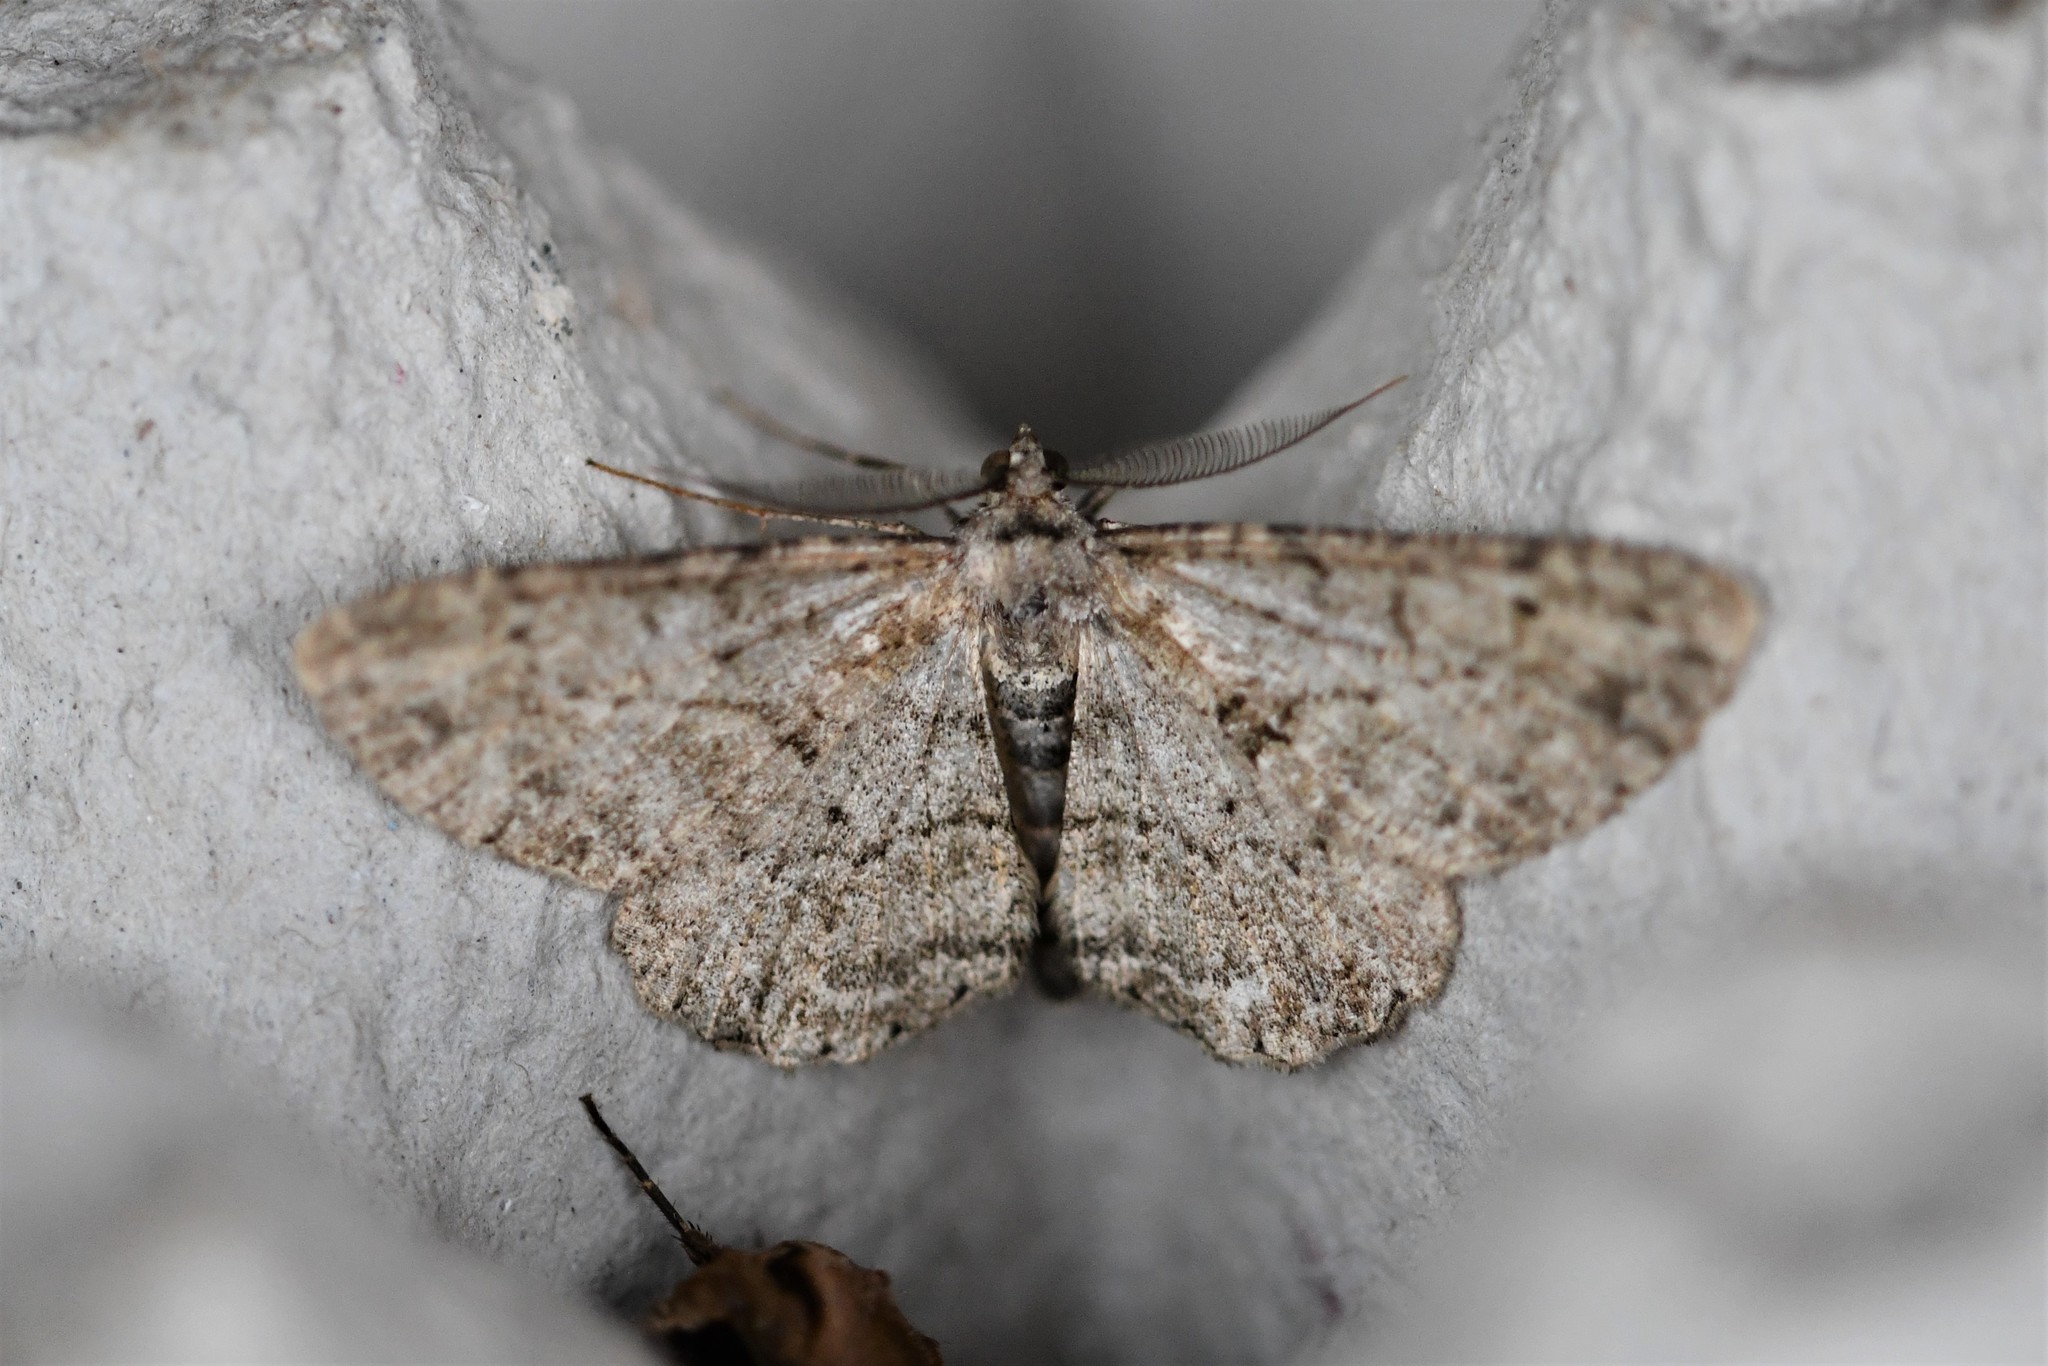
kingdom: Animalia
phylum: Arthropoda
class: Insecta
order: Lepidoptera
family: Geometridae
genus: Peribatodes
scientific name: Peribatodes rhomboidaria
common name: Willow beauty
